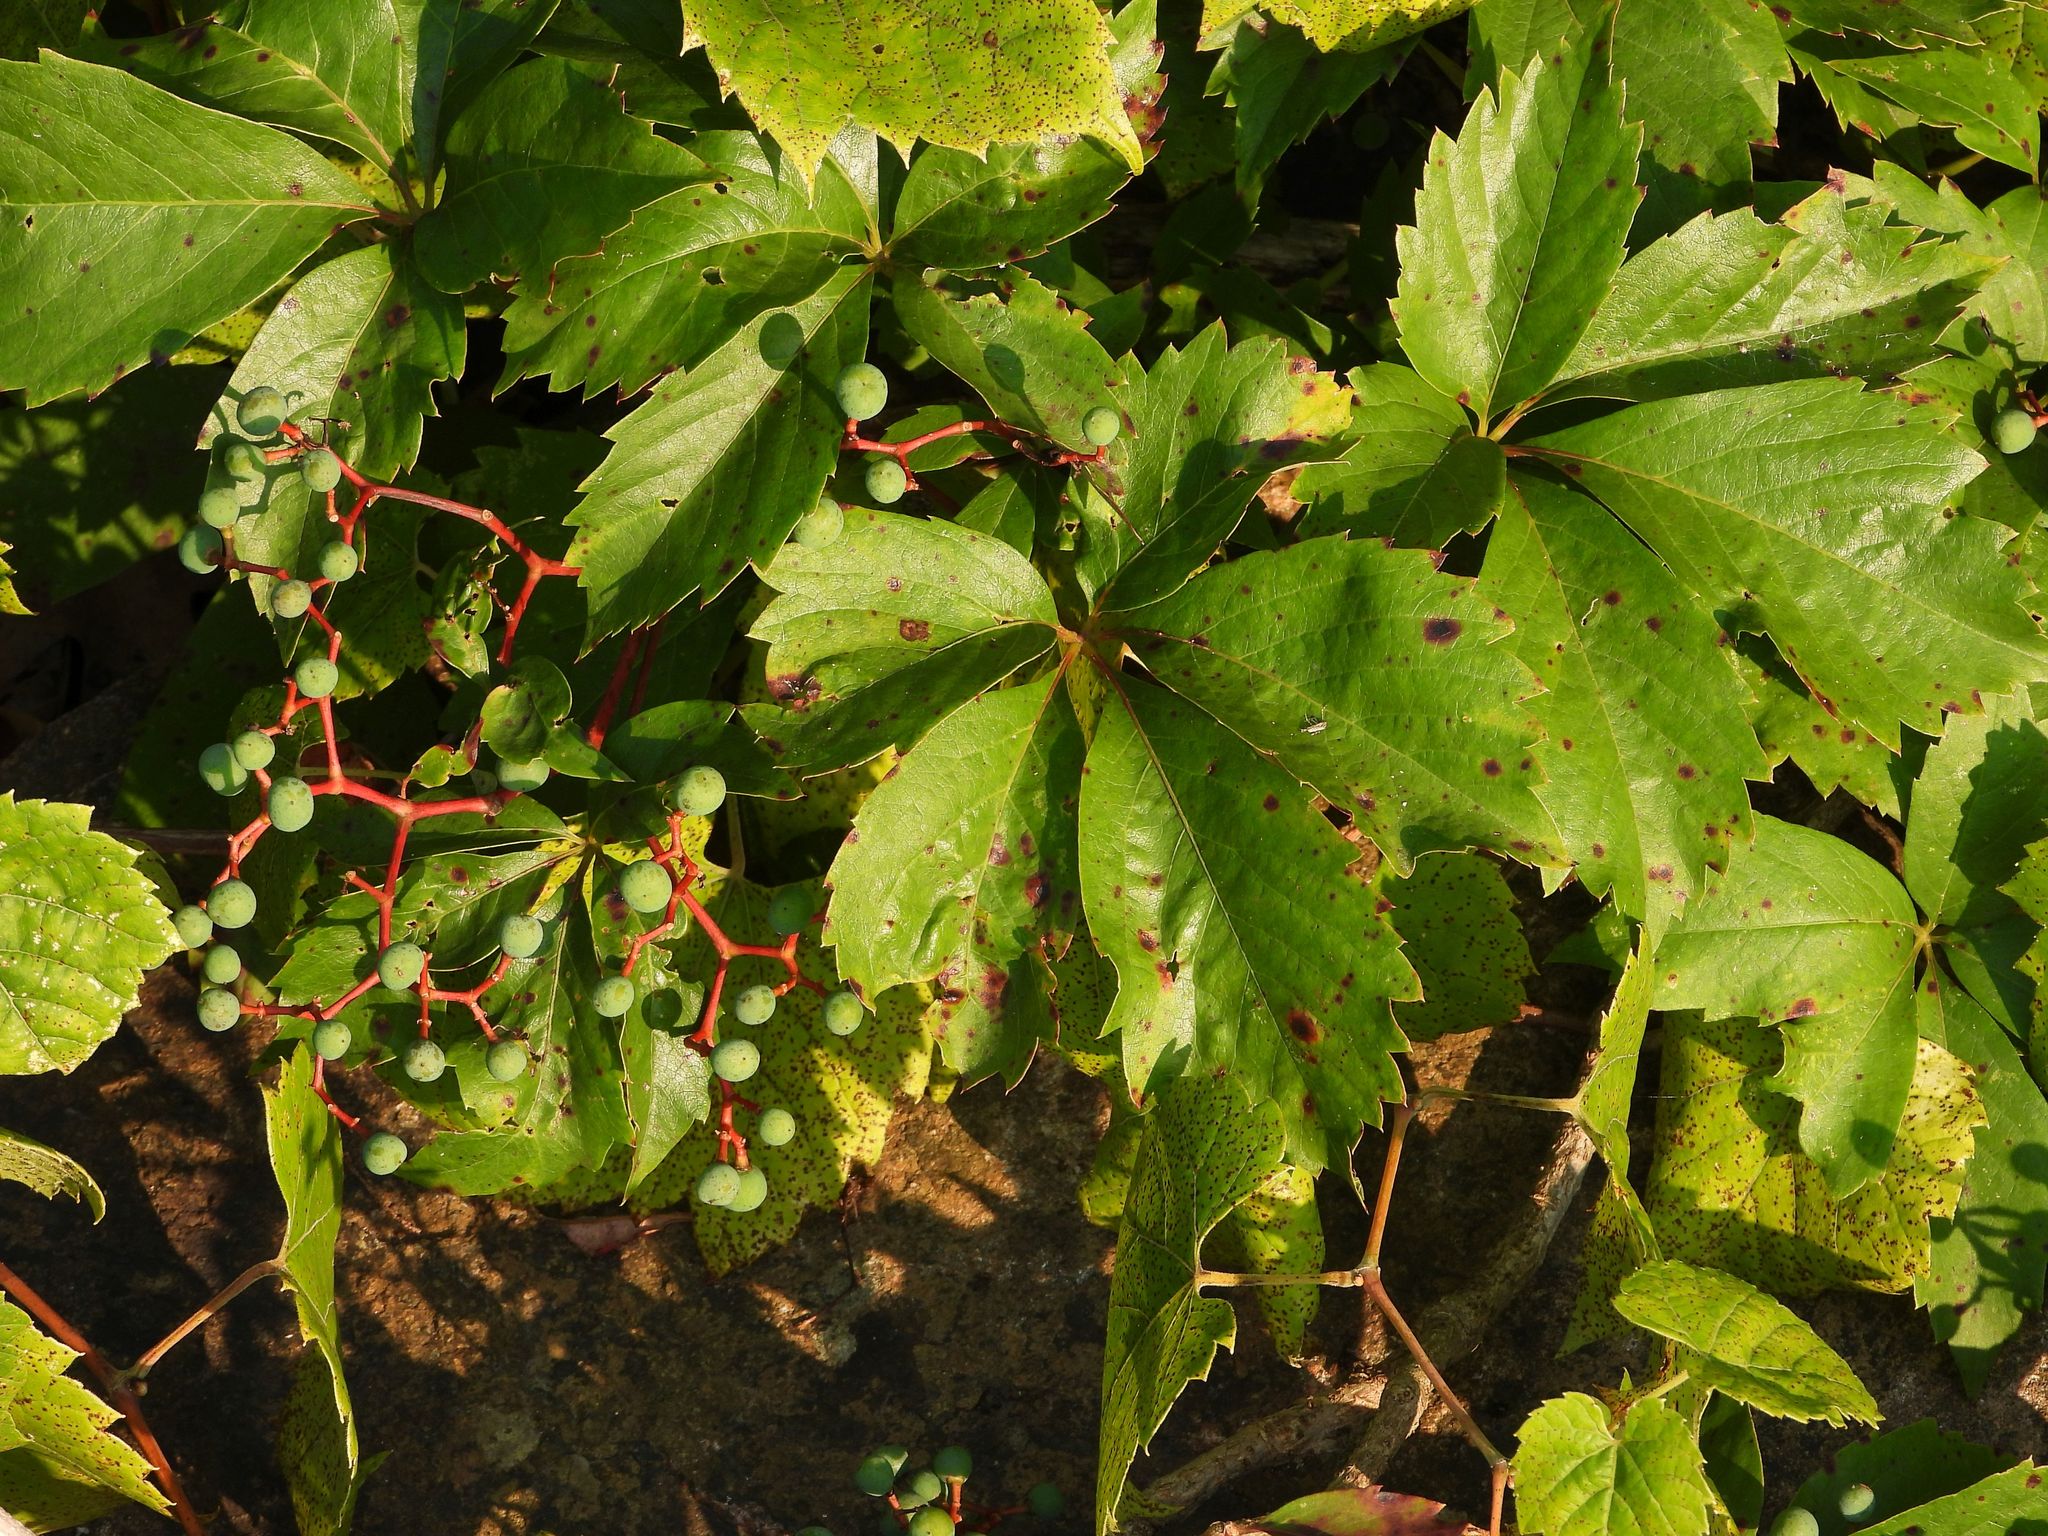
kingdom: Plantae
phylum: Tracheophyta
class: Magnoliopsida
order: Vitales
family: Vitaceae
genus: Parthenocissus
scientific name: Parthenocissus quinquefolia
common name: Virginia-creeper
